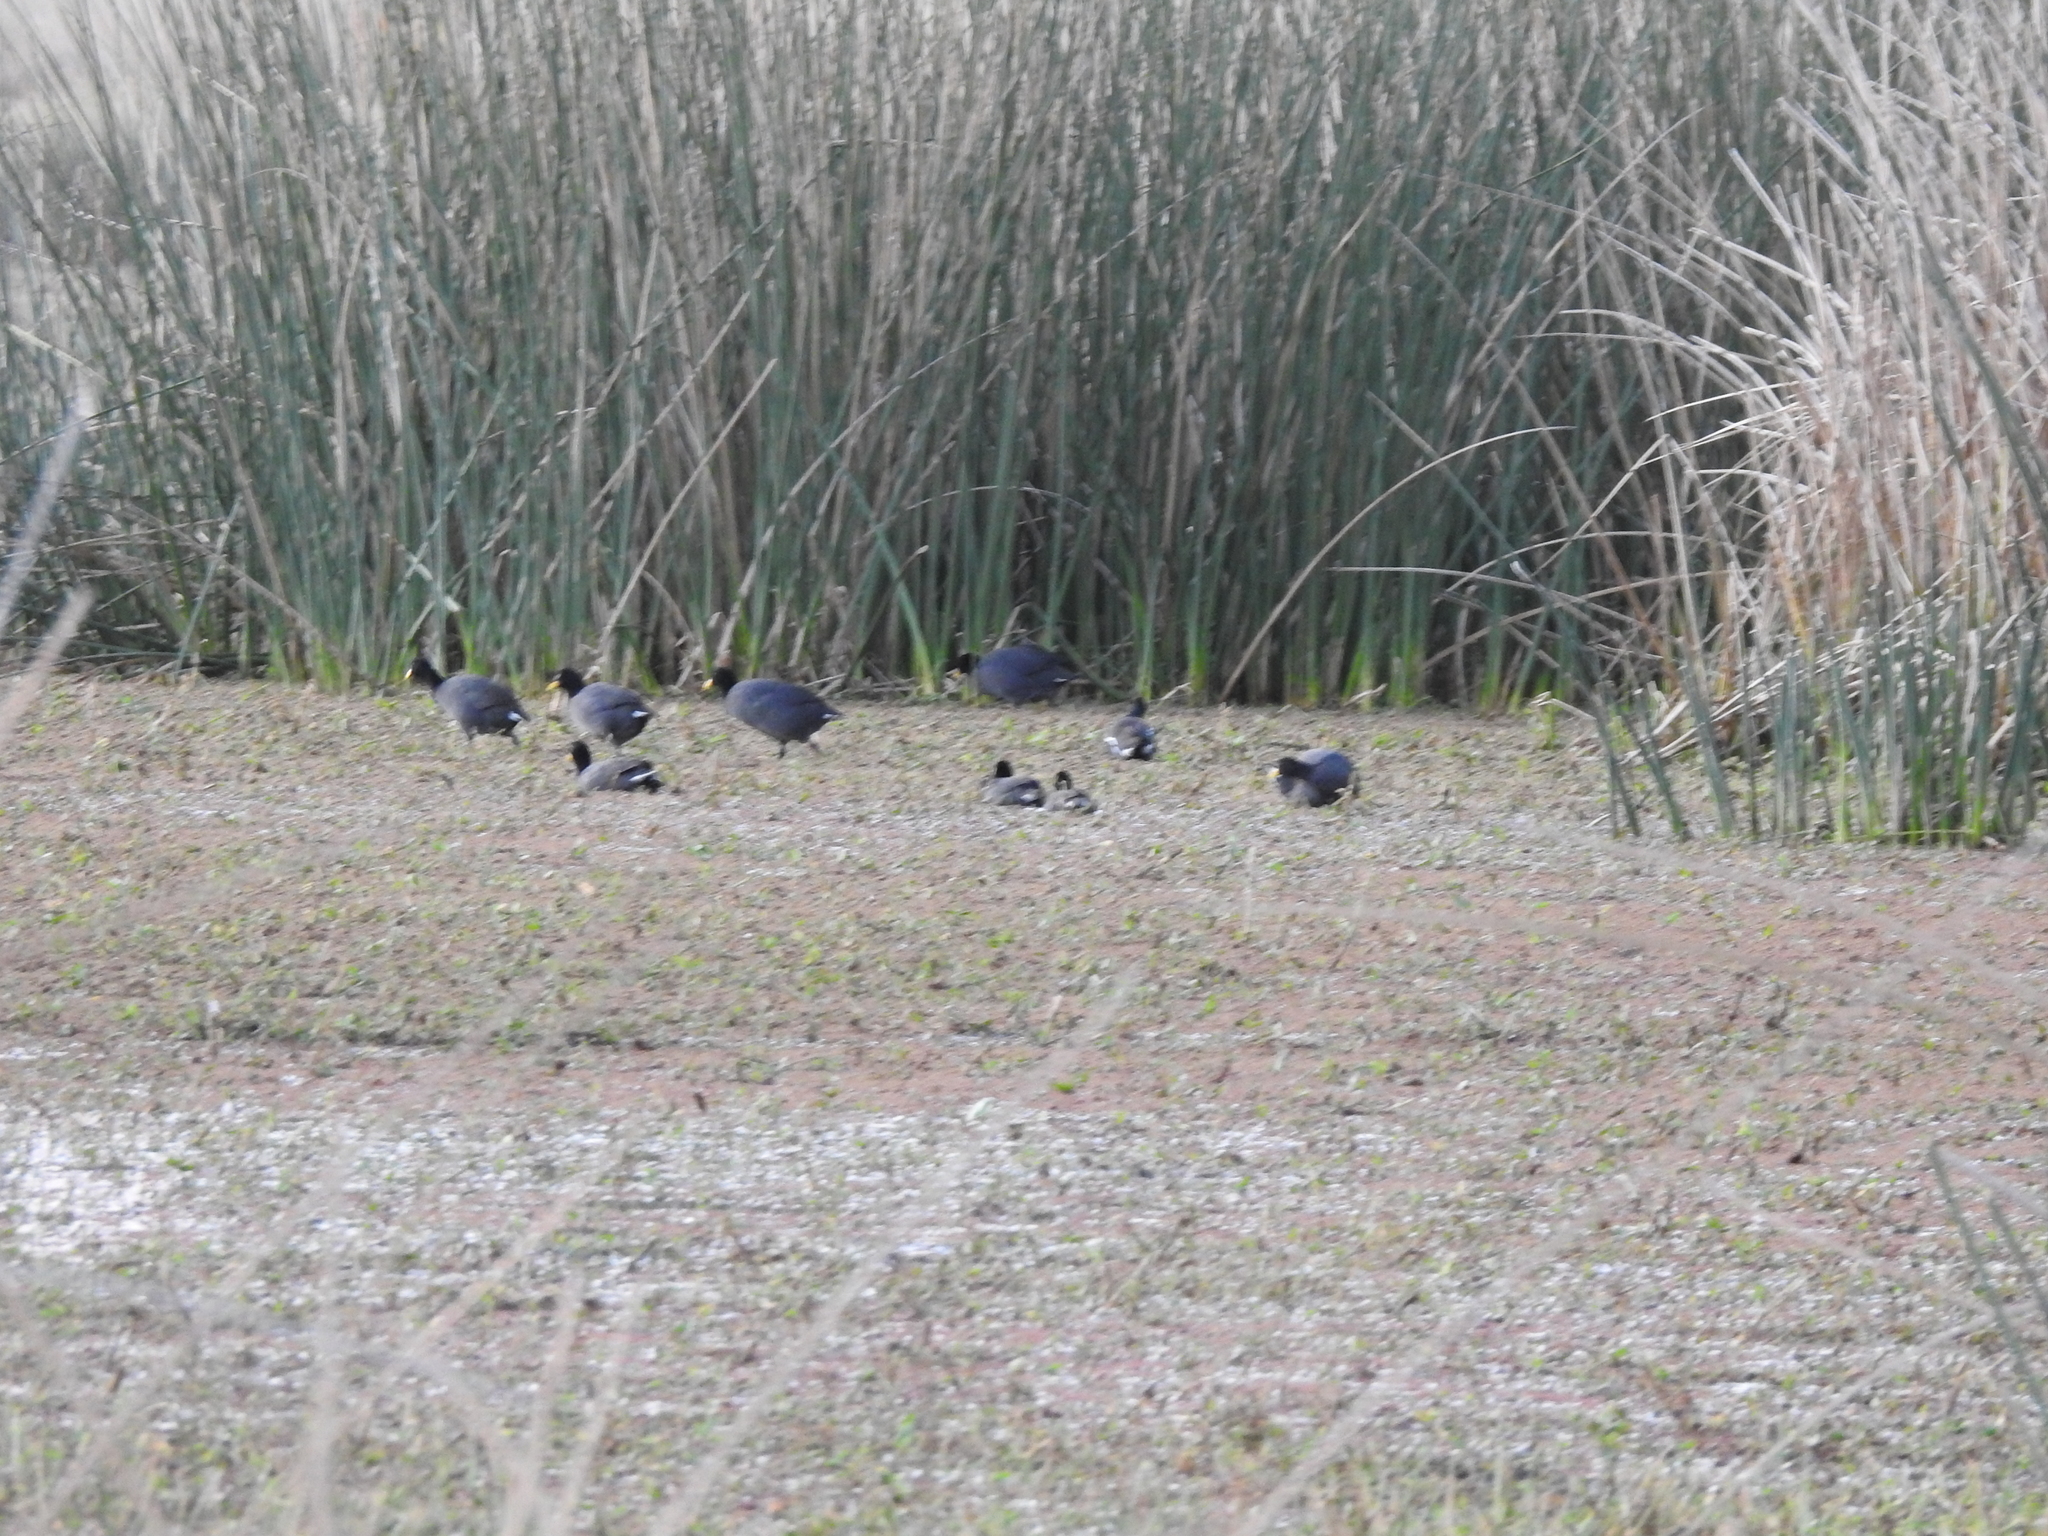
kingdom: Animalia
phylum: Chordata
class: Aves
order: Gruiformes
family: Rallidae
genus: Fulica
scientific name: Fulica rufifrons
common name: Red-fronted coot
